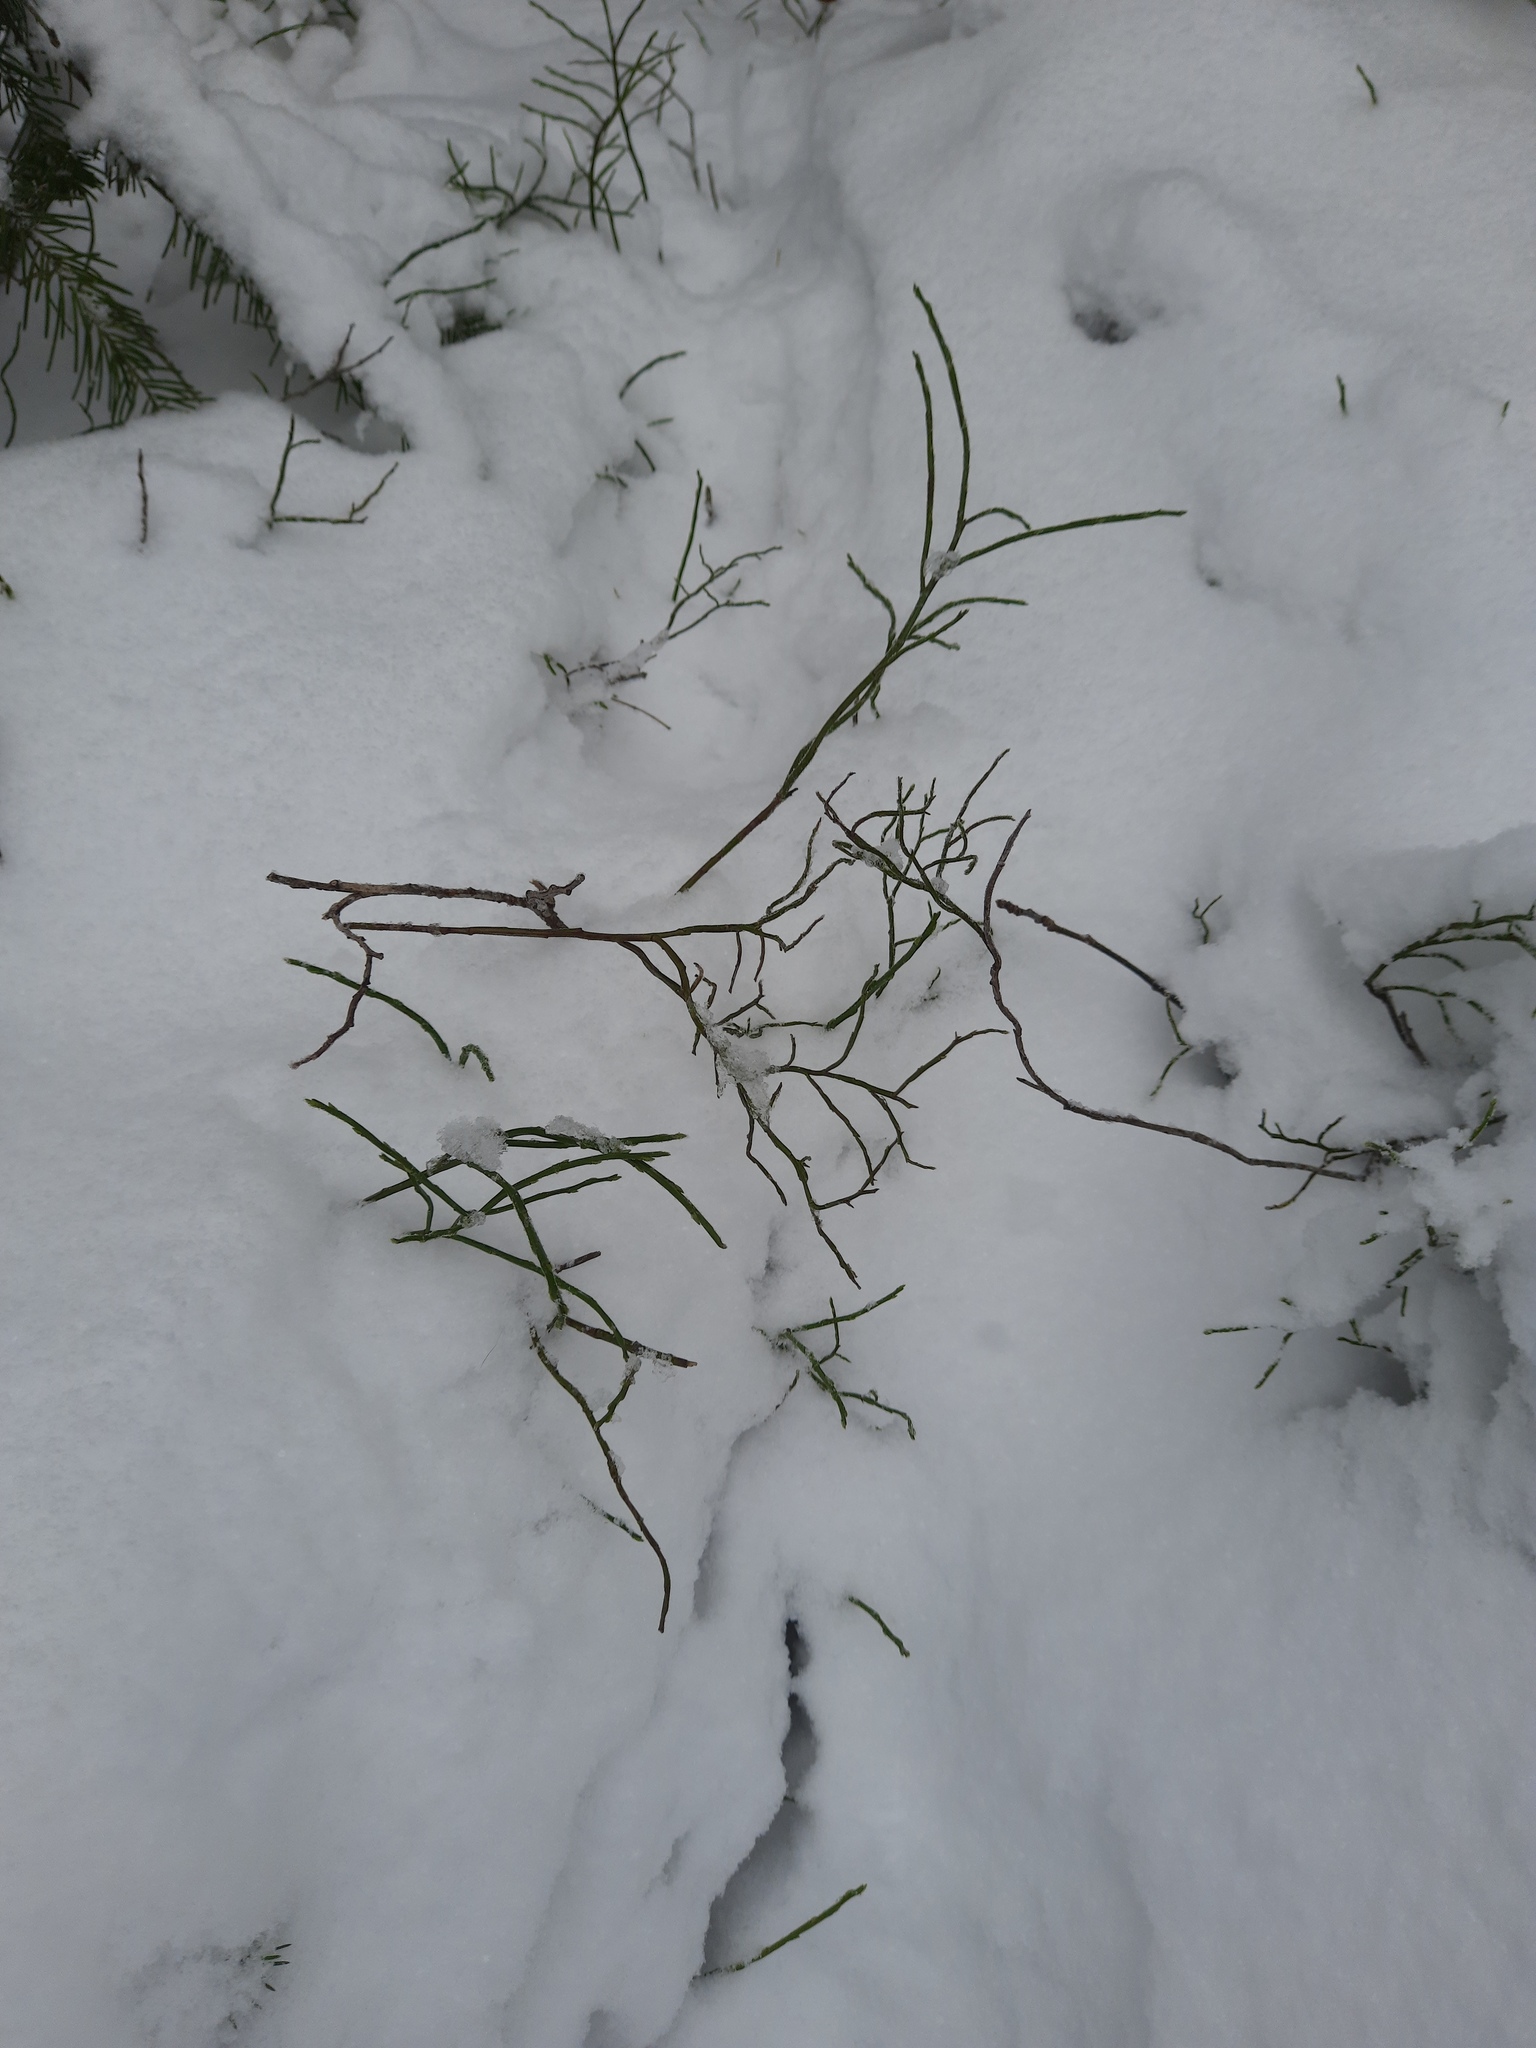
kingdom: Plantae
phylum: Tracheophyta
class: Magnoliopsida
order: Ericales
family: Ericaceae
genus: Vaccinium
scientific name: Vaccinium myrtillus
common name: Bilberry
